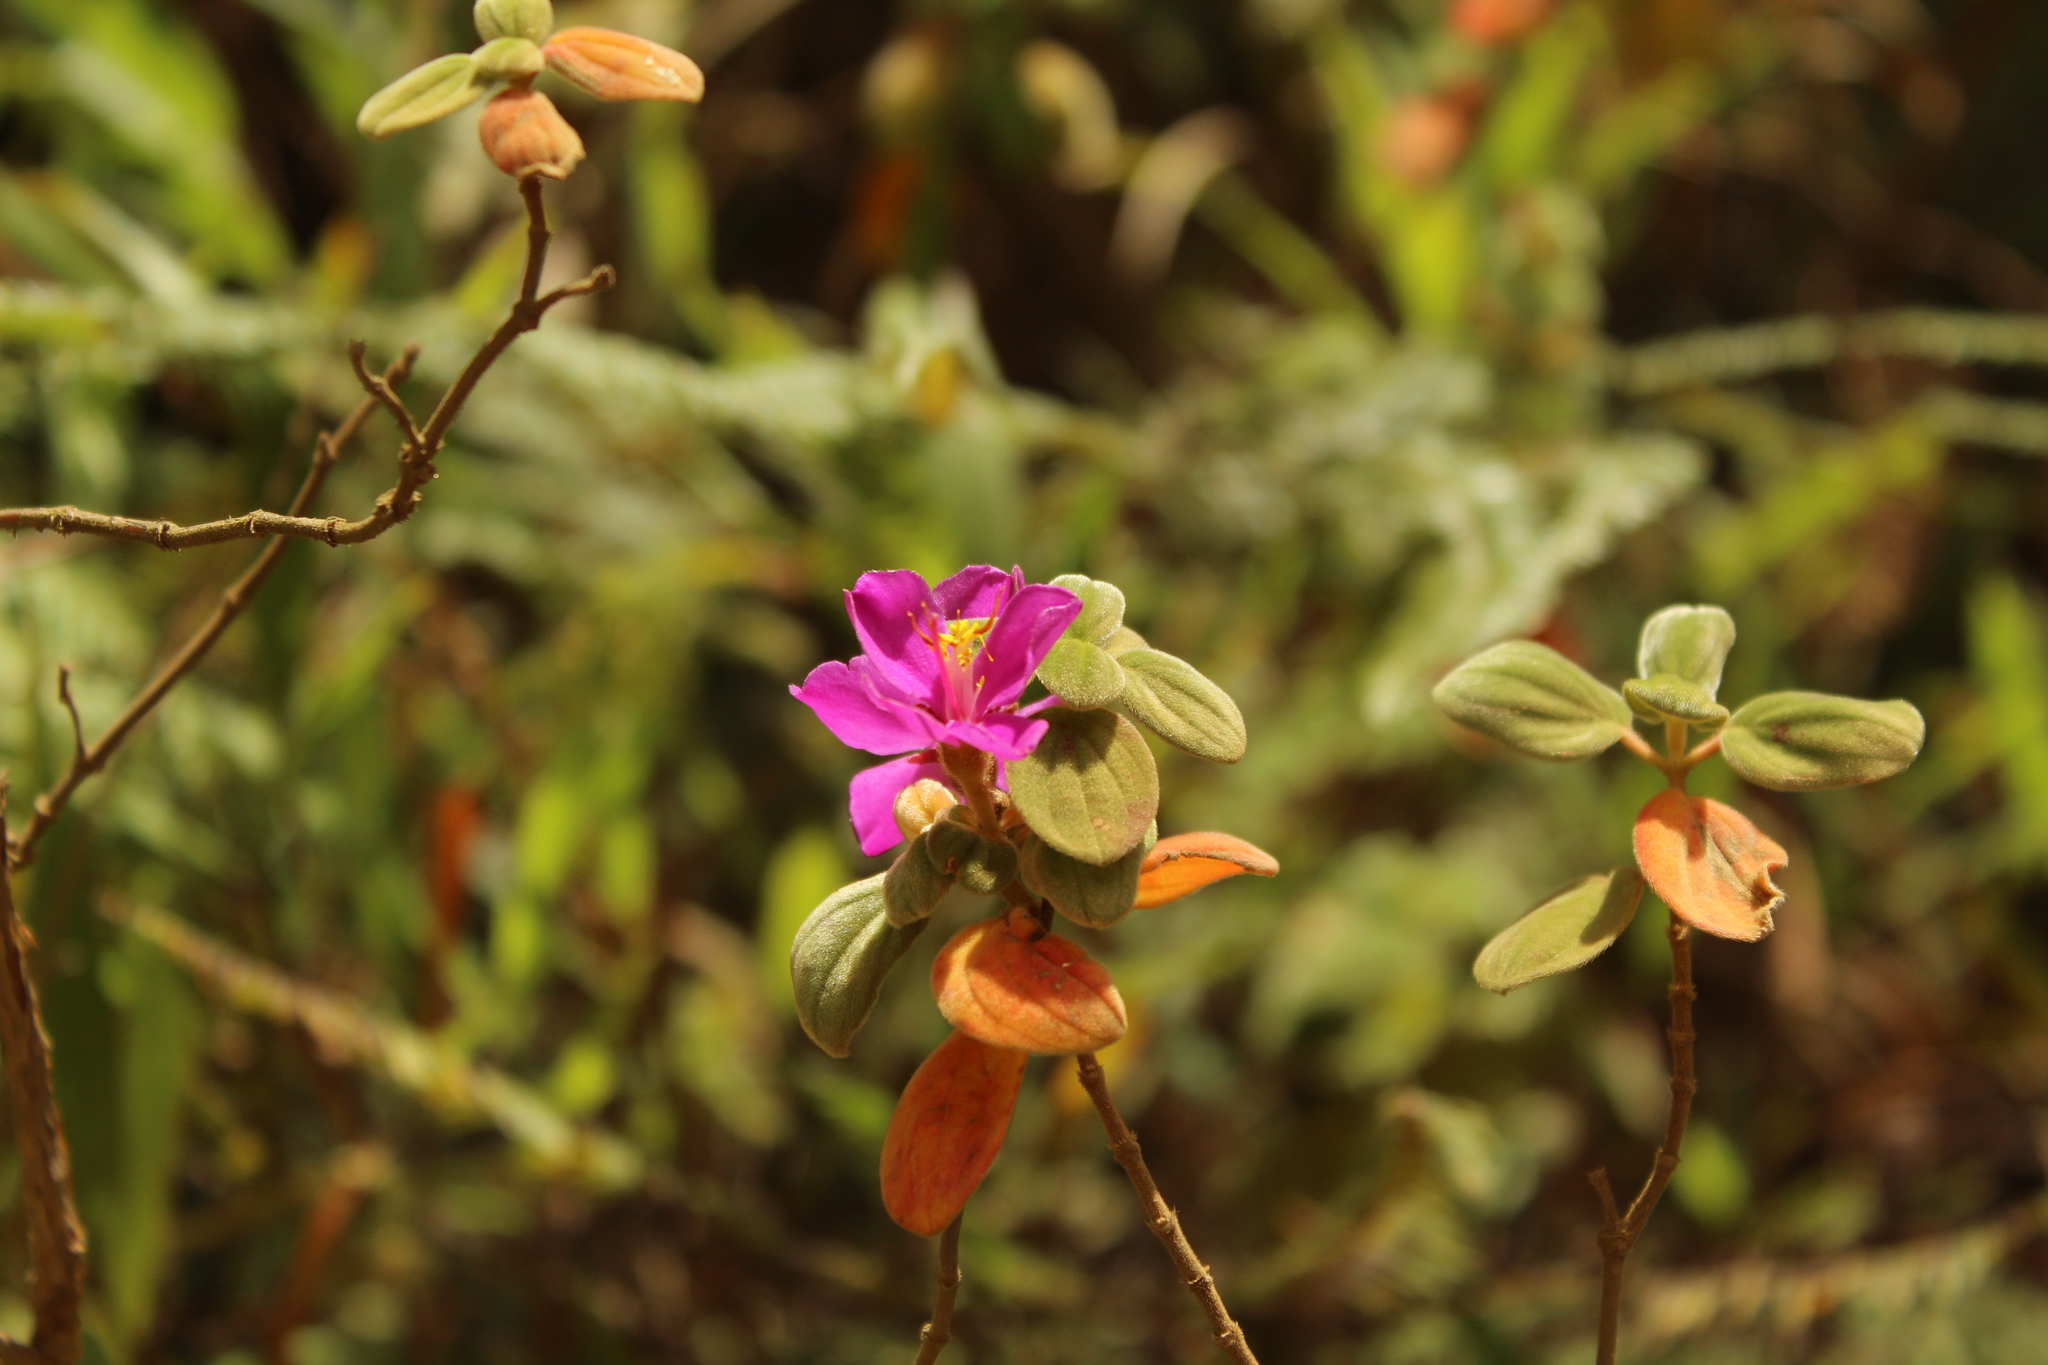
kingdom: Plantae
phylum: Tracheophyta
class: Magnoliopsida
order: Myrtales
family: Melastomataceae
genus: Monochaetum
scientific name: Monochaetum bonplandii
